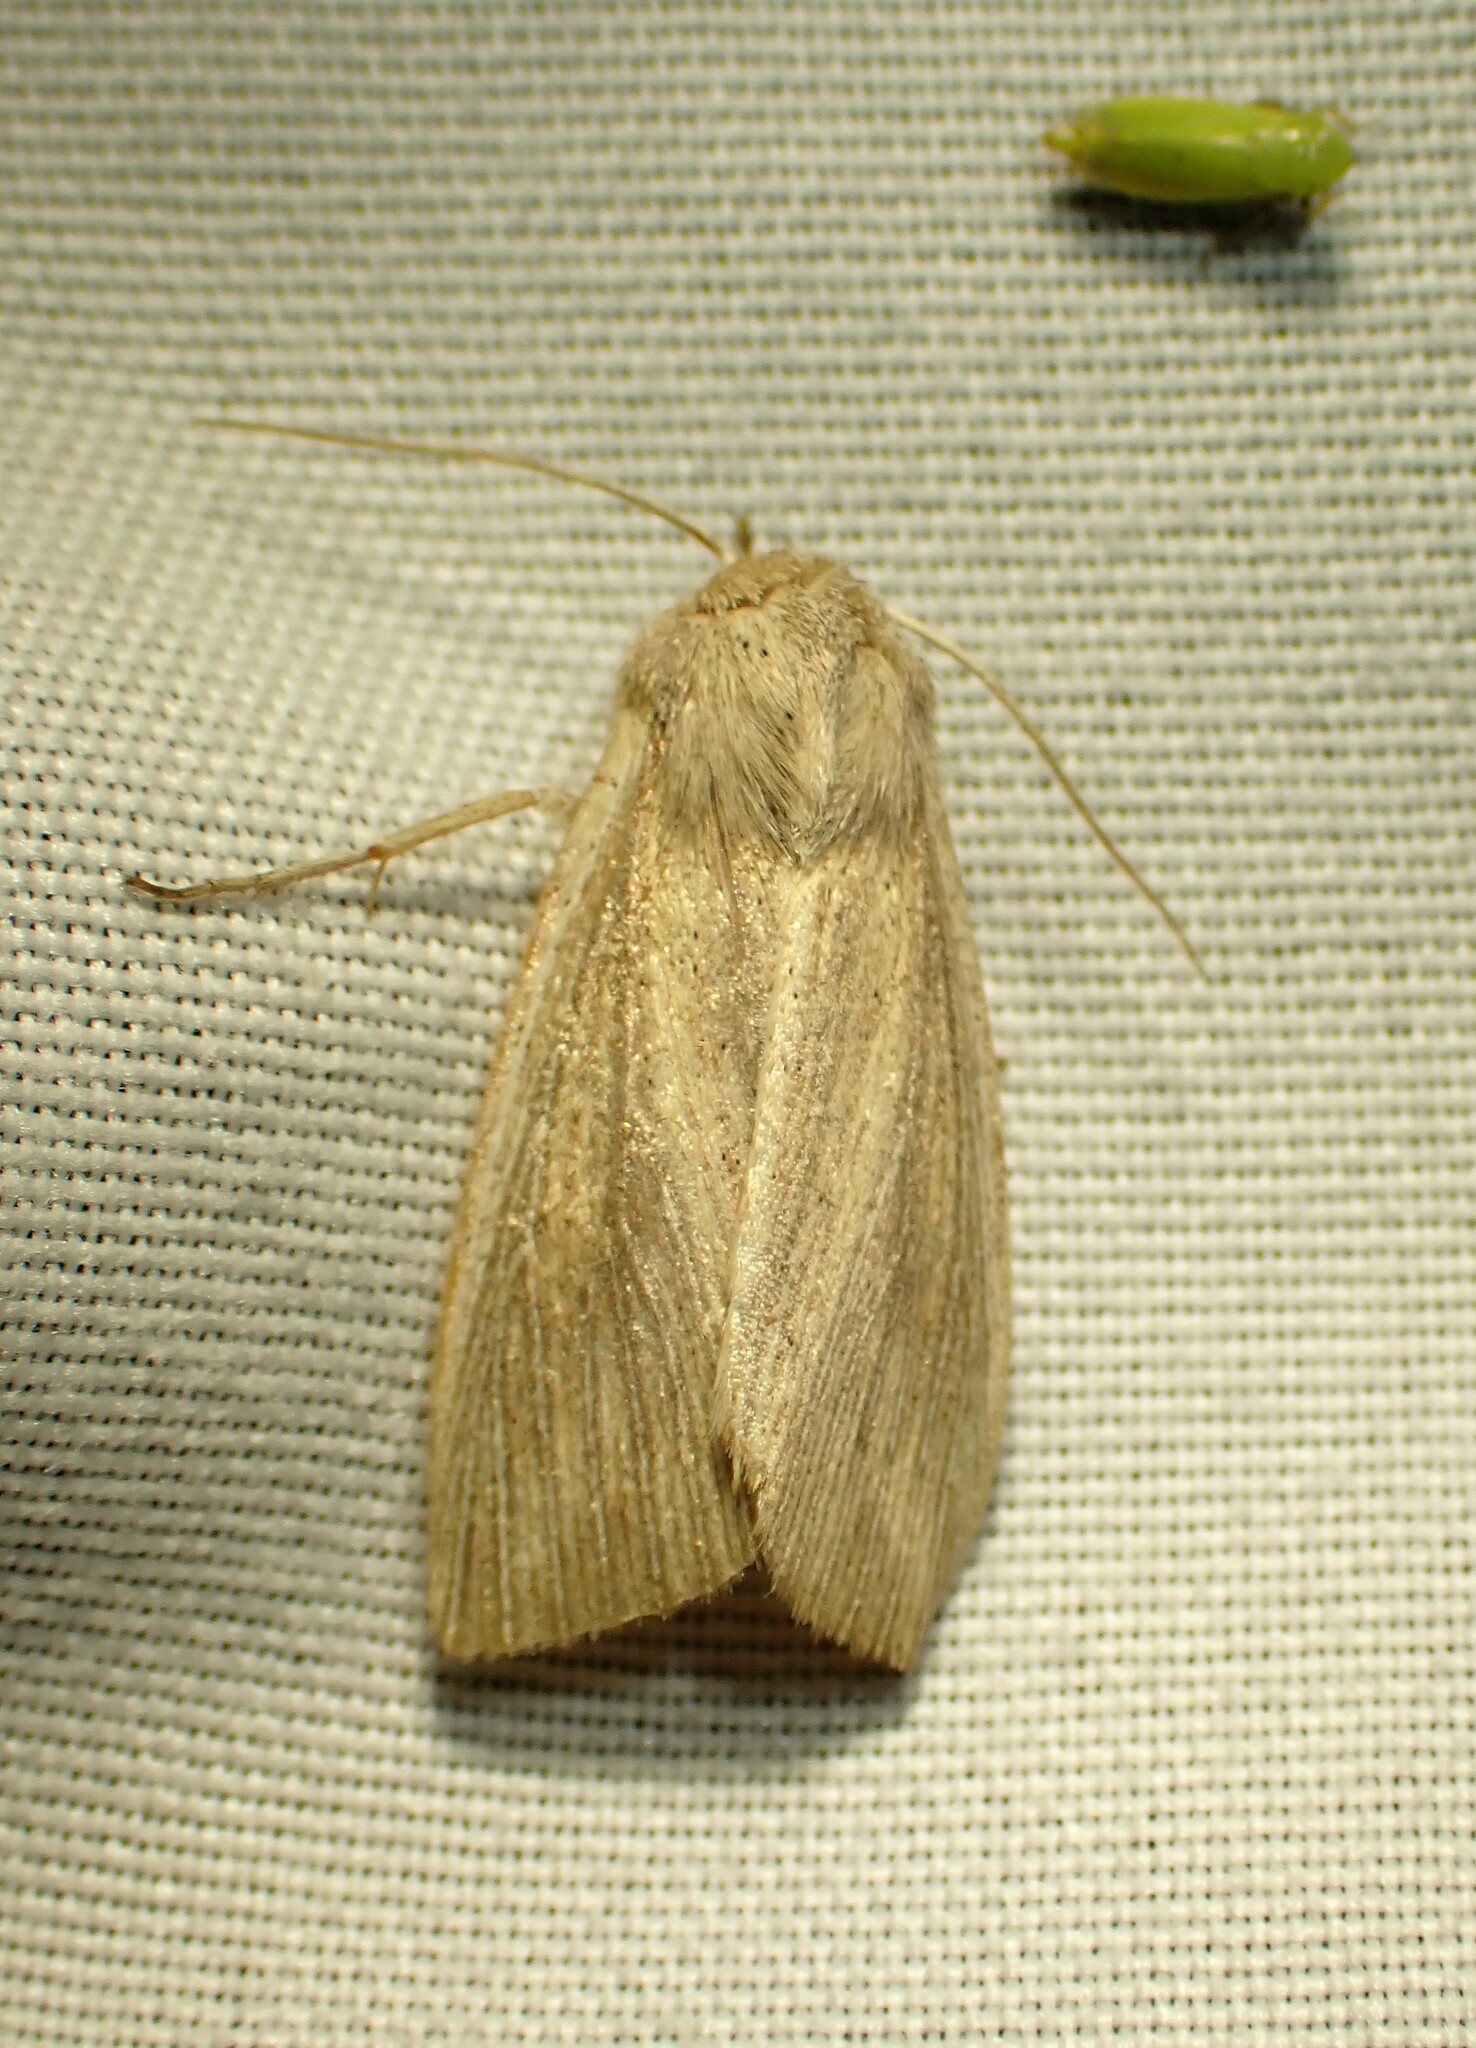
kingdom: Animalia
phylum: Arthropoda
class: Insecta
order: Lepidoptera
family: Noctuidae
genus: Leucania
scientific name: Leucania linita
